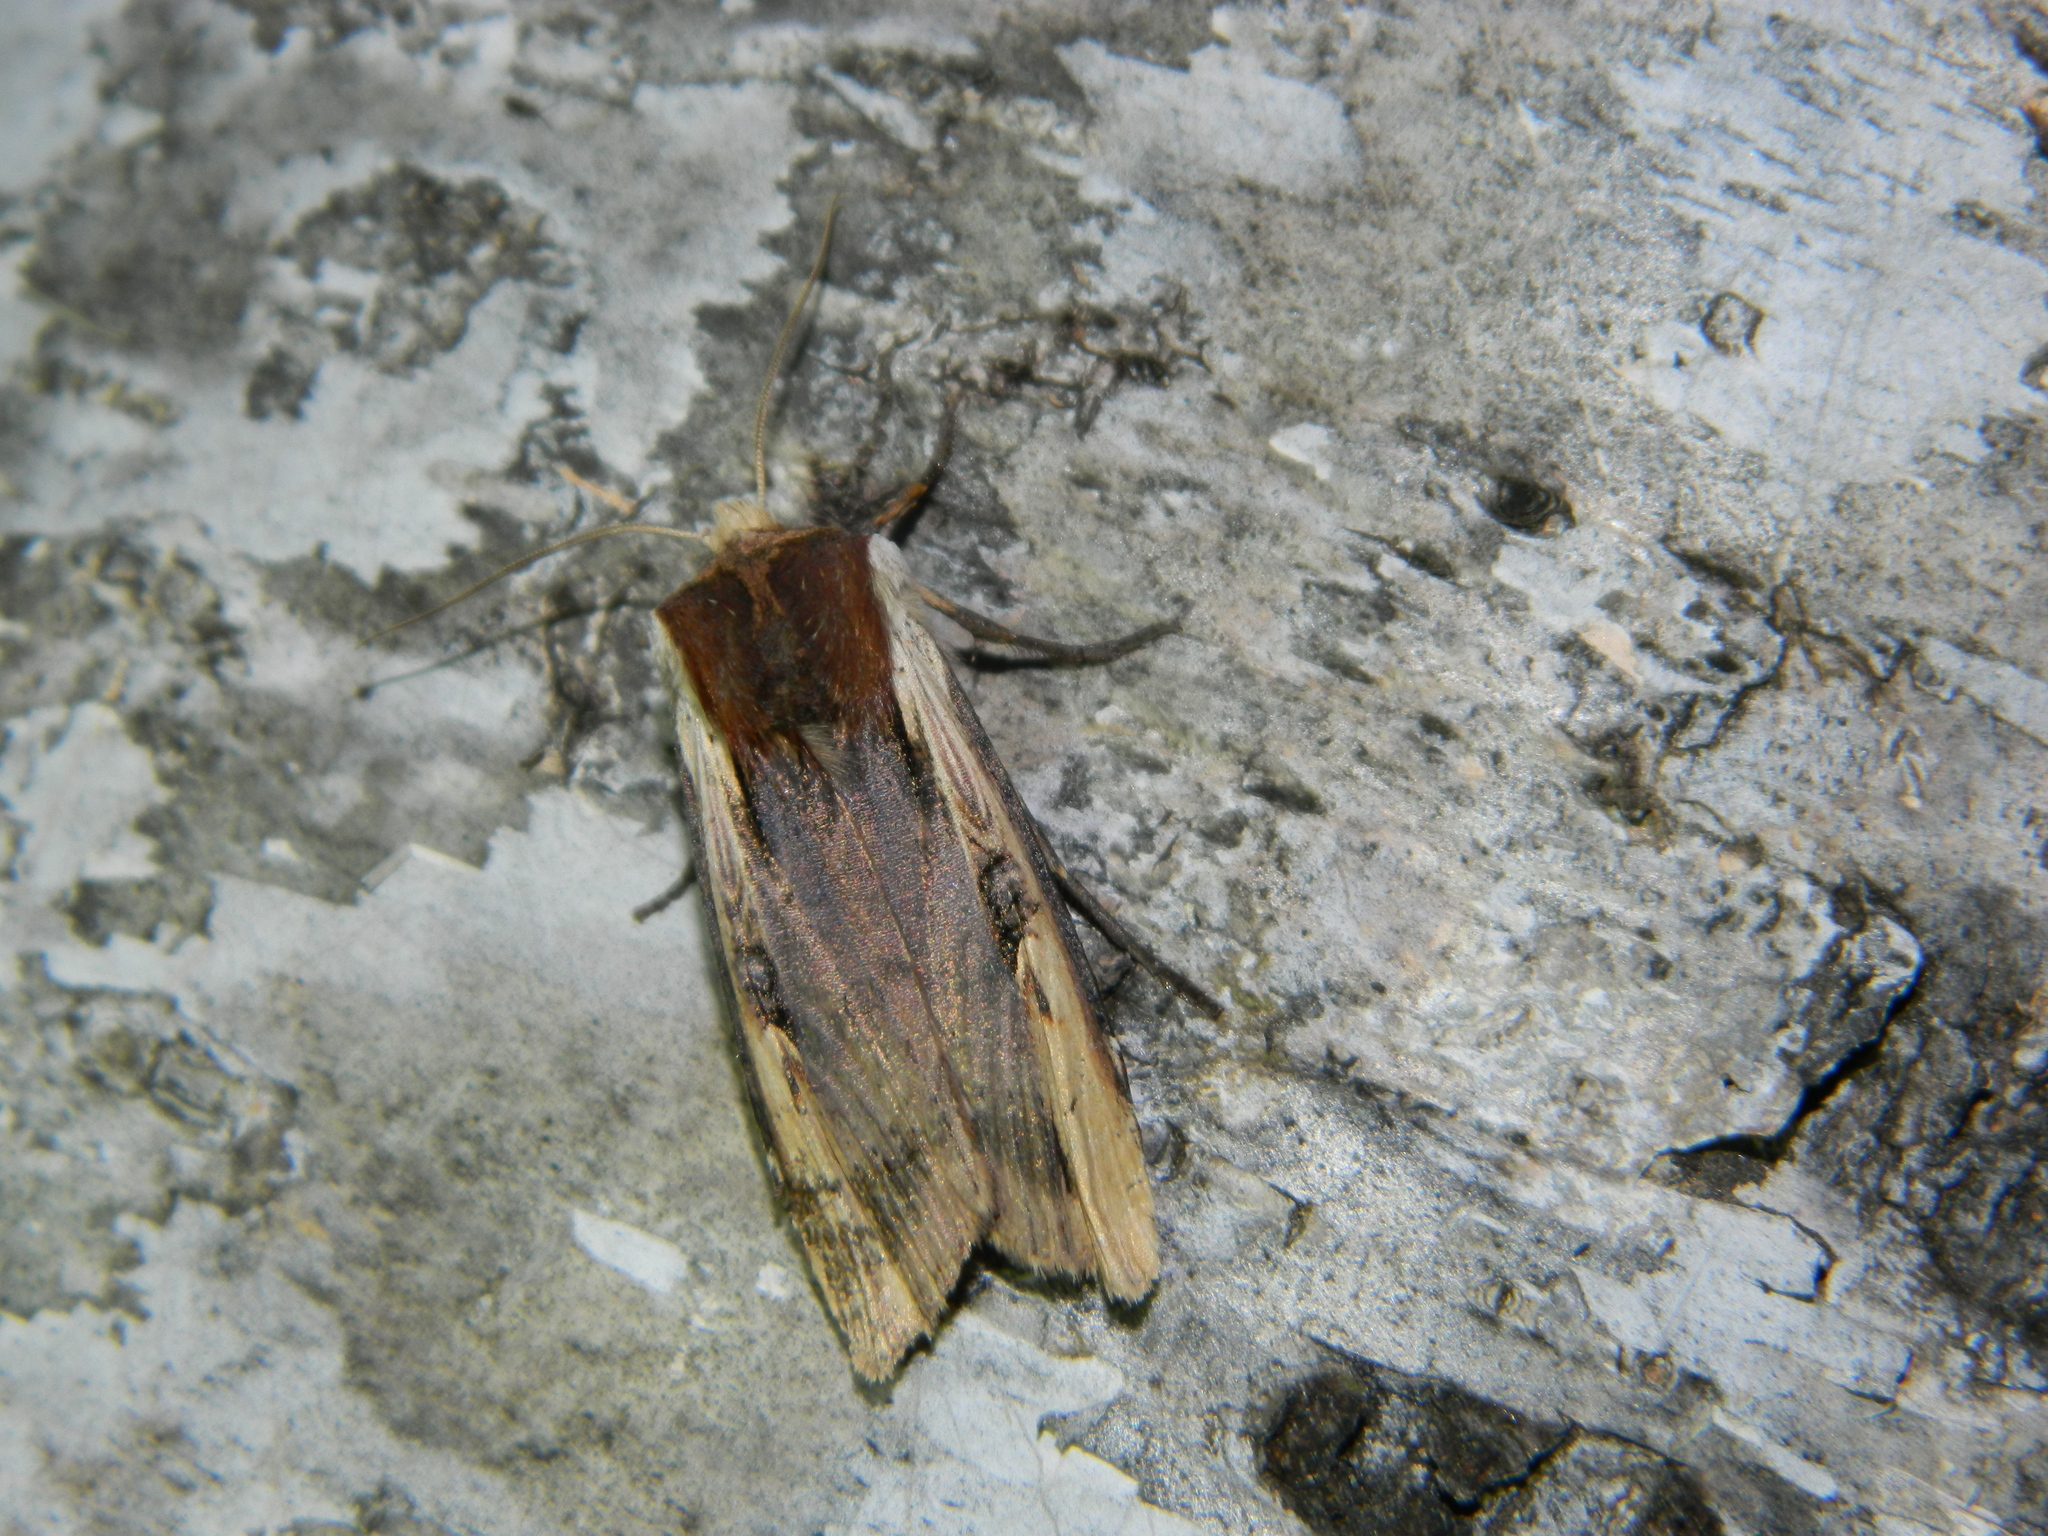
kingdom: Animalia
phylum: Arthropoda
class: Insecta
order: Lepidoptera
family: Noctuidae
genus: Xylena
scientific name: Xylena curvimacula
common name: Dot-and-dash swordgrass moth
